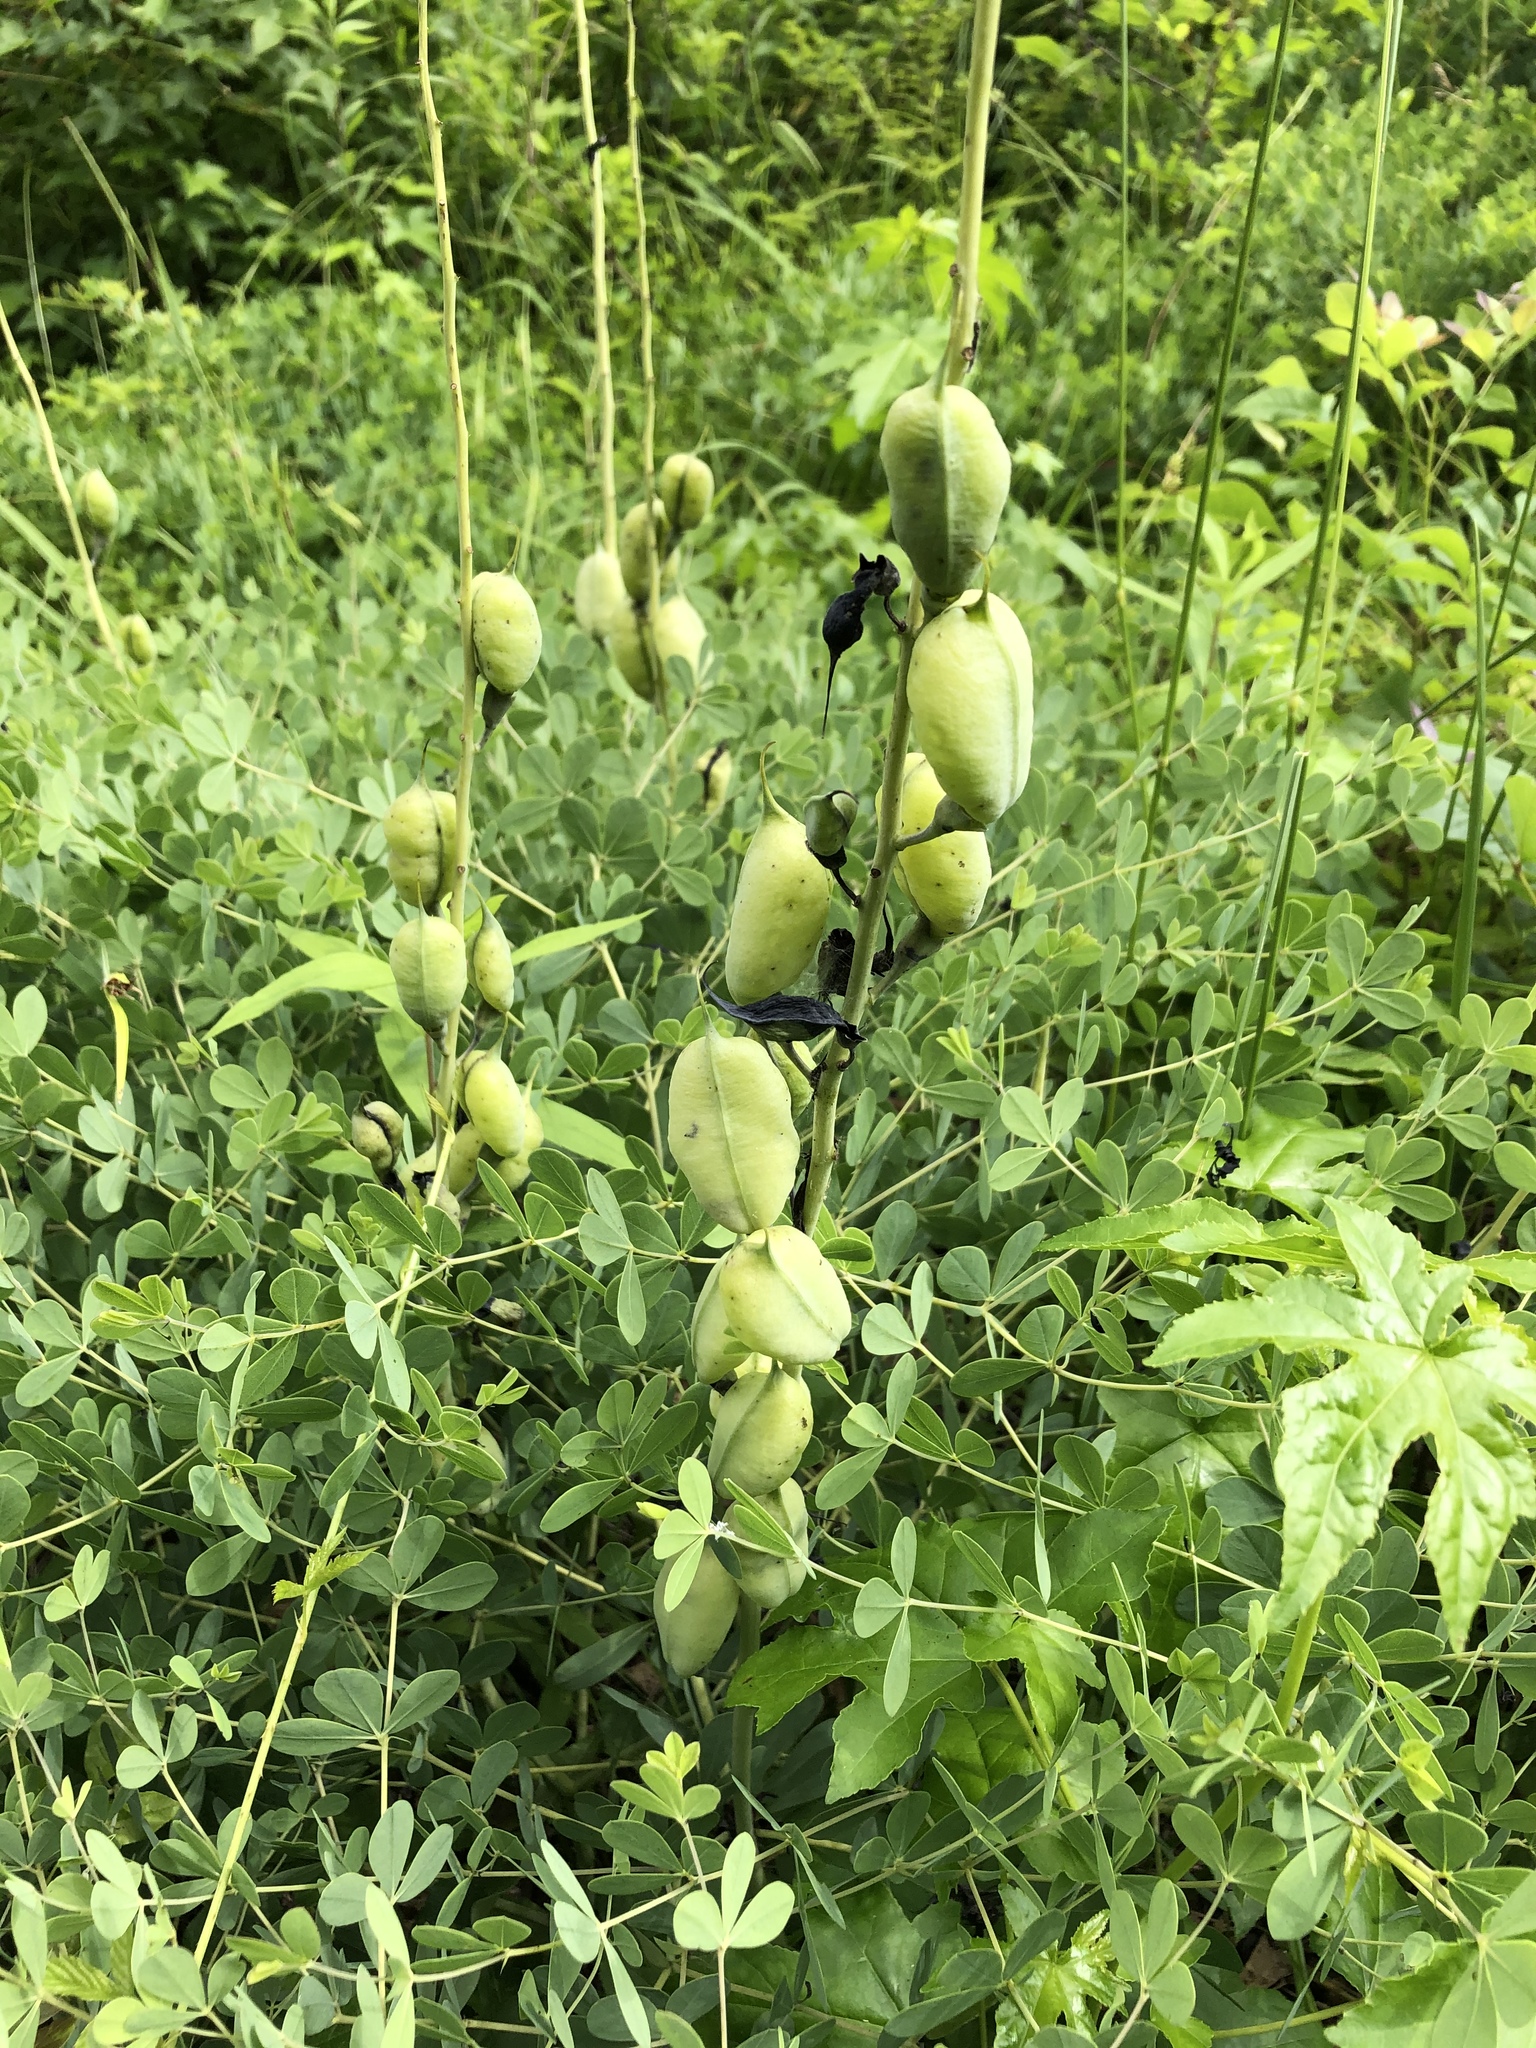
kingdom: Plantae
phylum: Tracheophyta
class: Magnoliopsida
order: Fabales
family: Fabaceae
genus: Baptisia
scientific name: Baptisia aberrans
